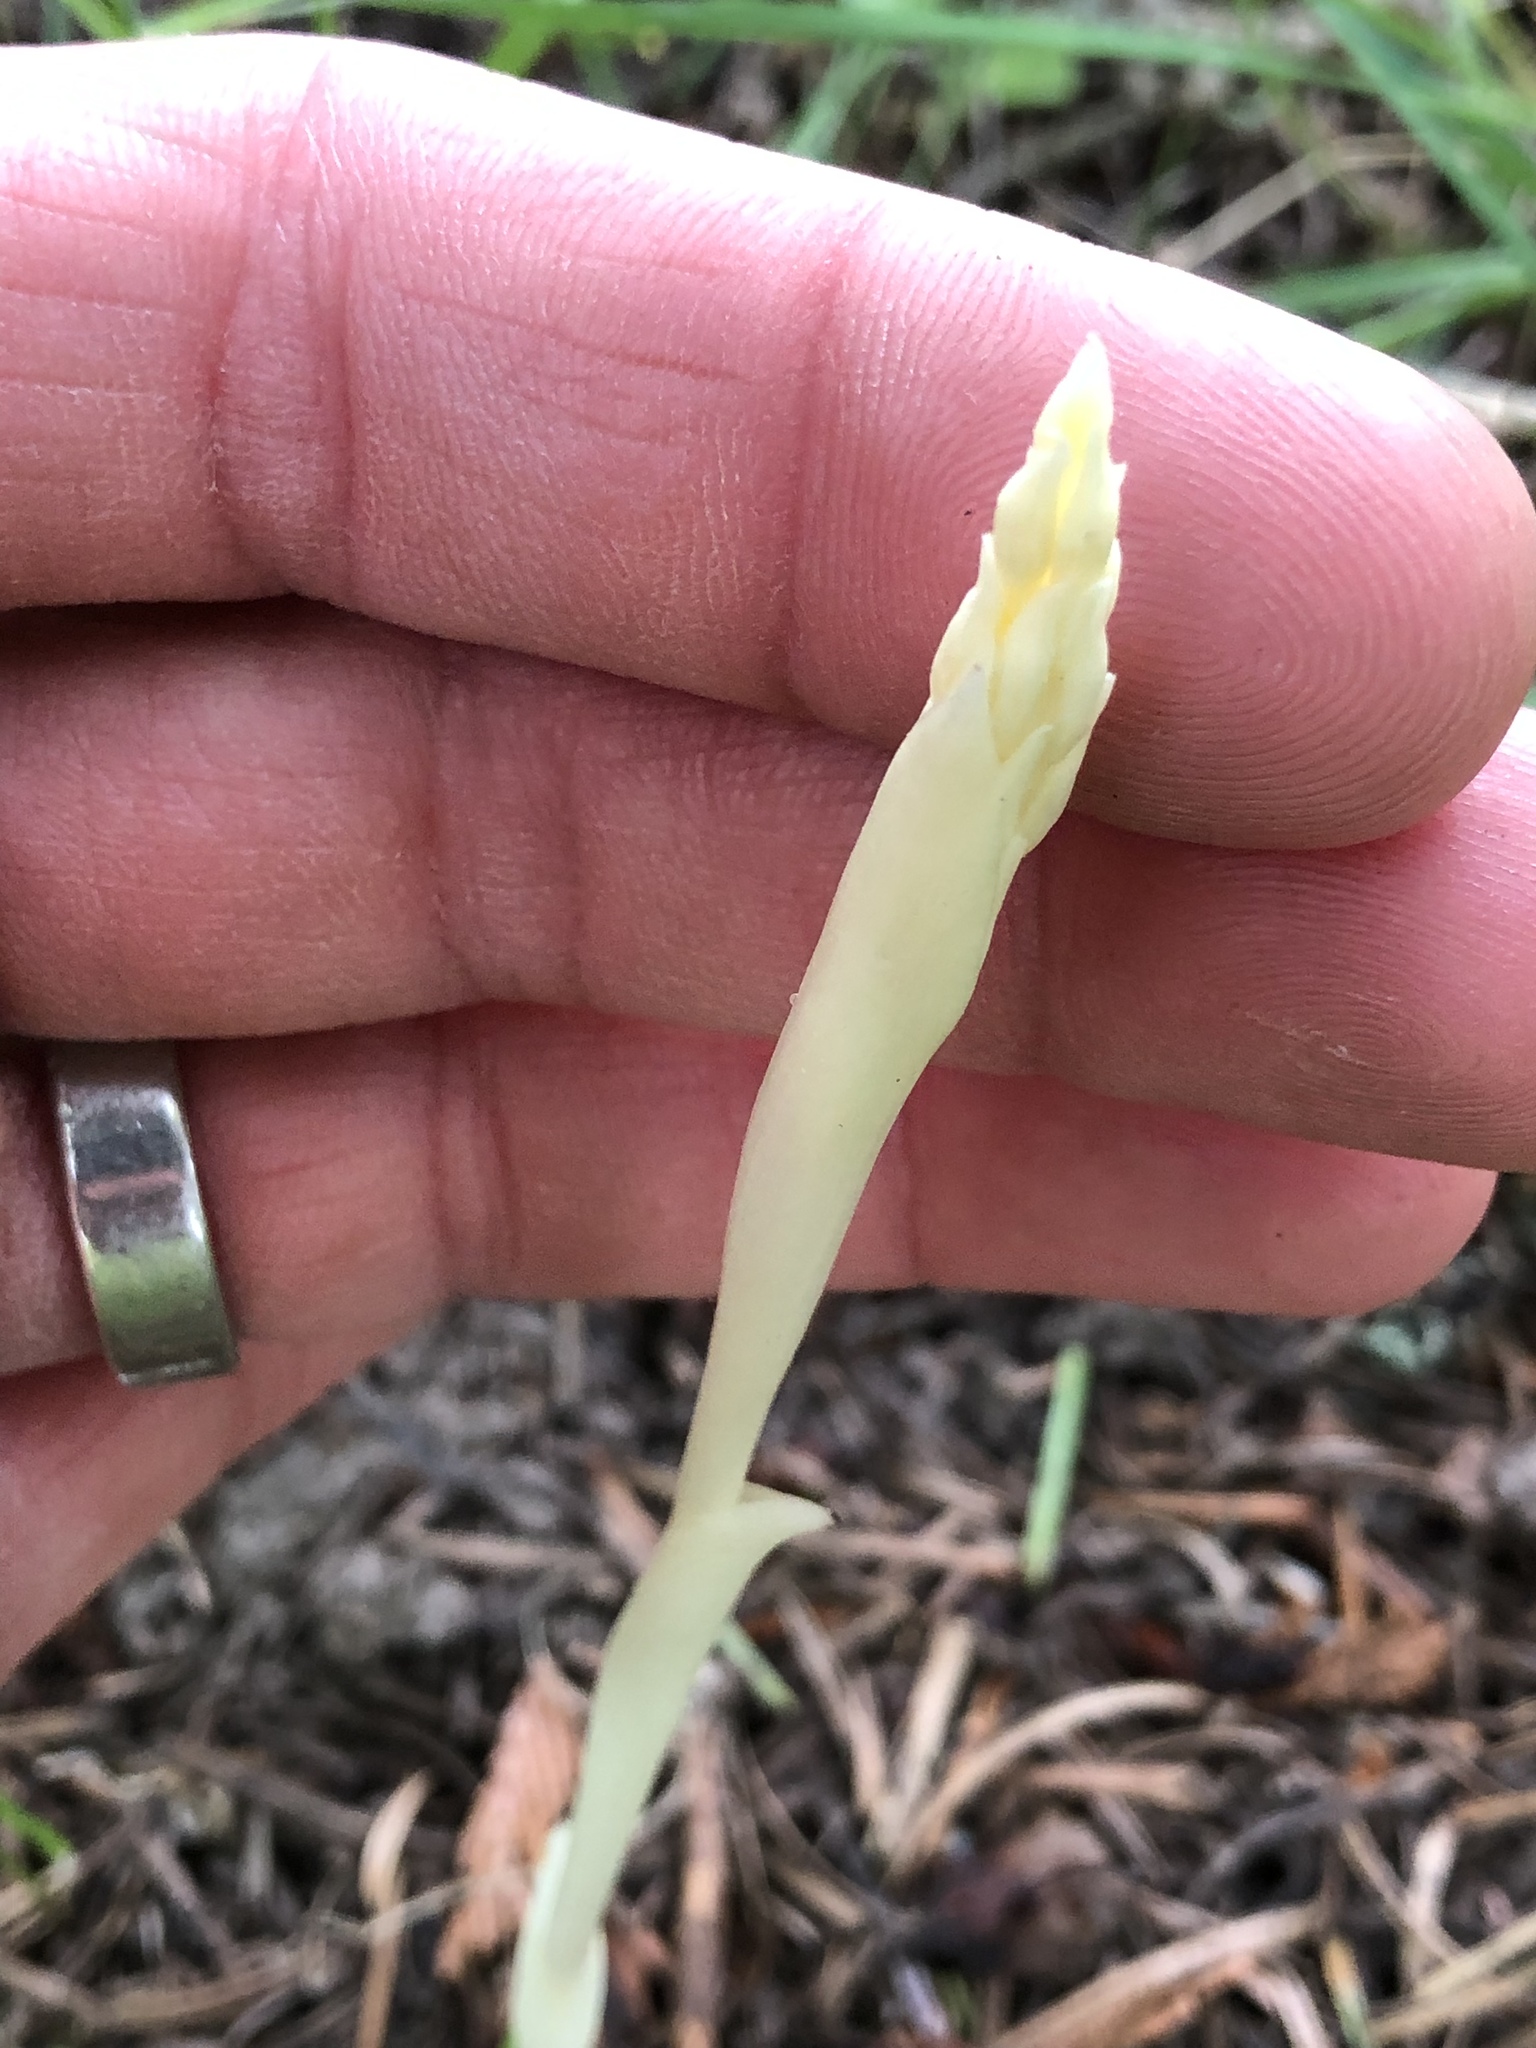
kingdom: Plantae
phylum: Tracheophyta
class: Liliopsida
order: Asparagales
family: Orchidaceae
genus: Cephalanthera
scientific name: Cephalanthera austiniae
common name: Phantom orchid
